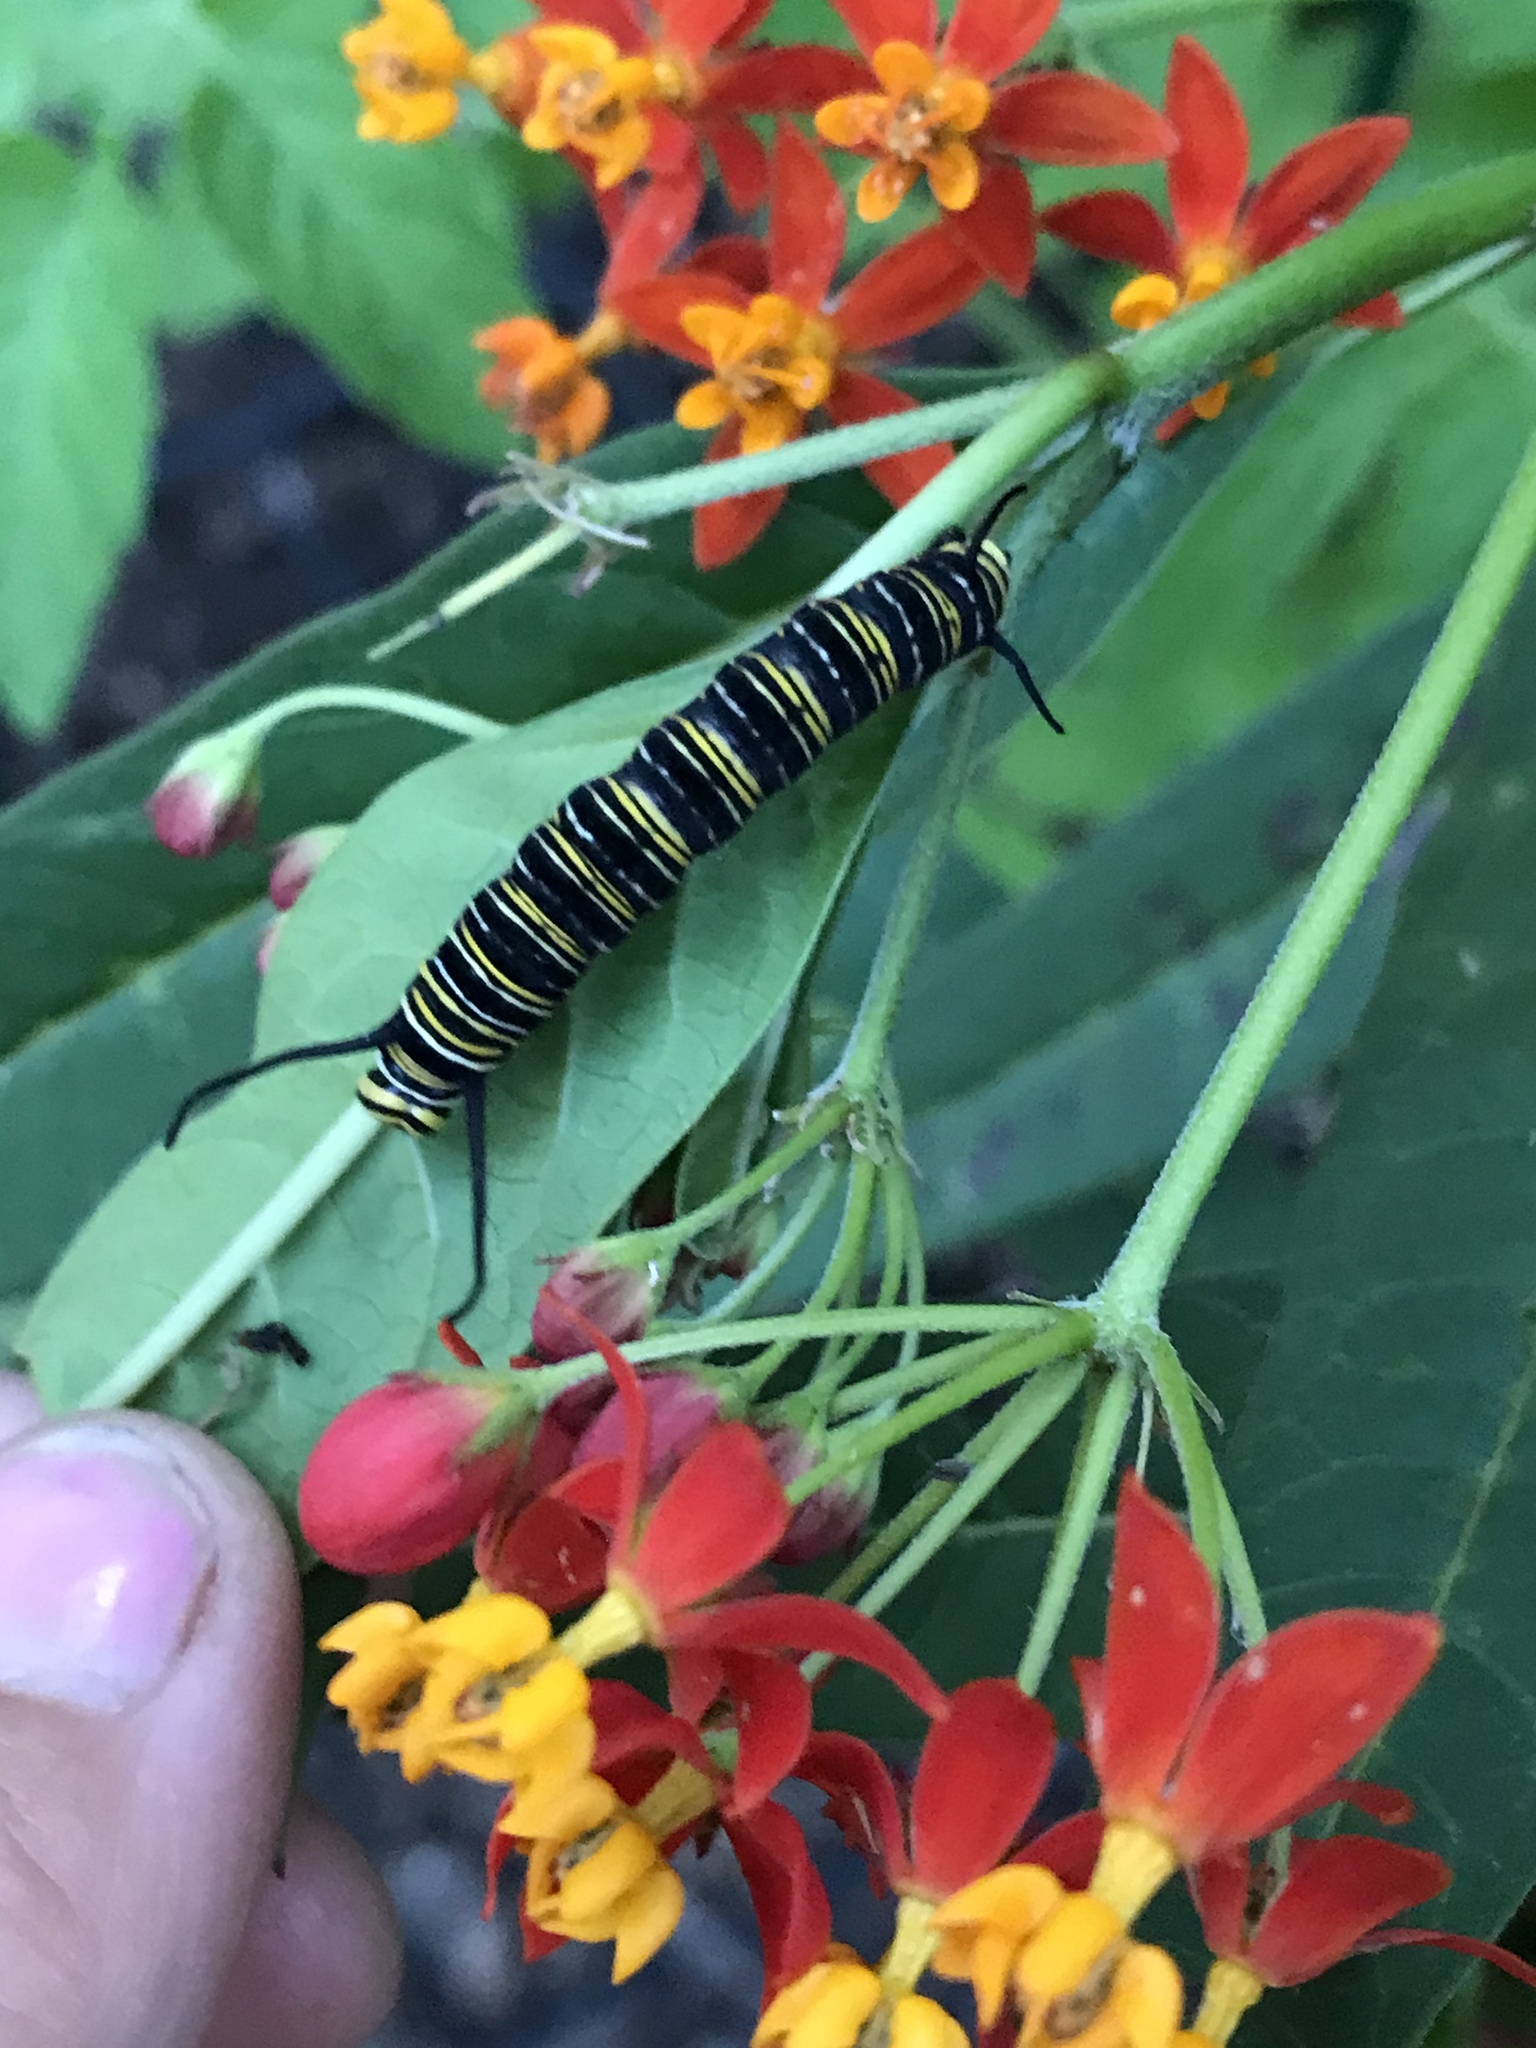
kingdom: Animalia
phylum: Arthropoda
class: Insecta
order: Lepidoptera
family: Nymphalidae
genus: Danaus
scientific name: Danaus plexippus
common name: Monarch
